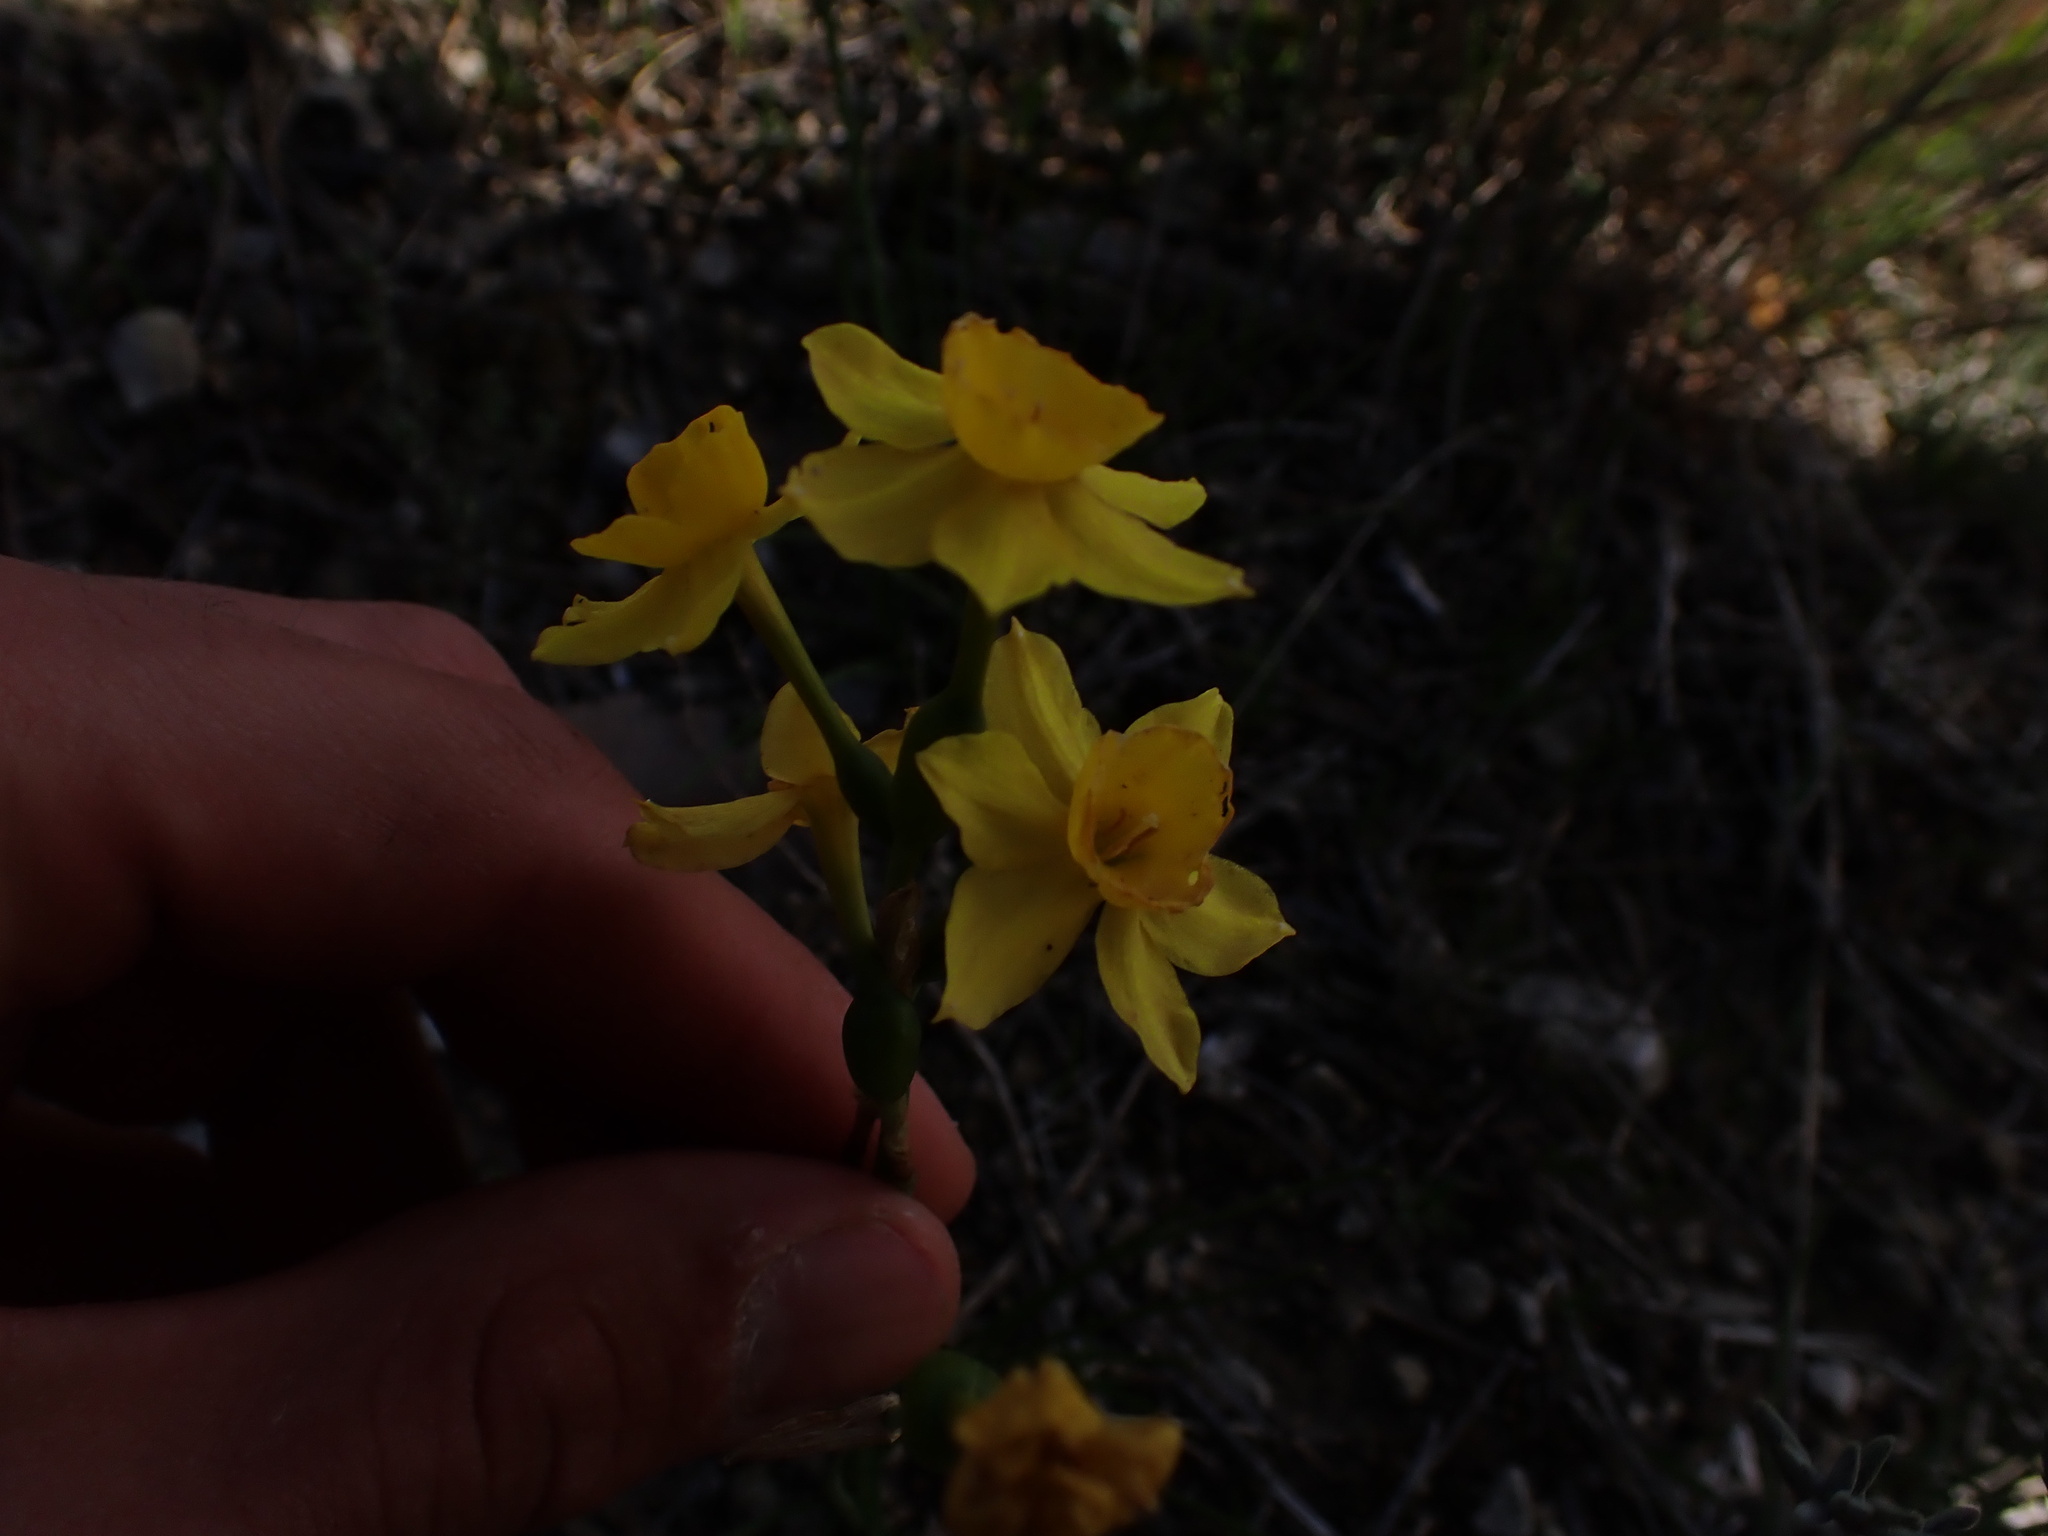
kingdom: Plantae
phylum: Tracheophyta
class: Liliopsida
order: Asparagales
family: Amaryllidaceae
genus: Narcissus
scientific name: Narcissus assoanus
